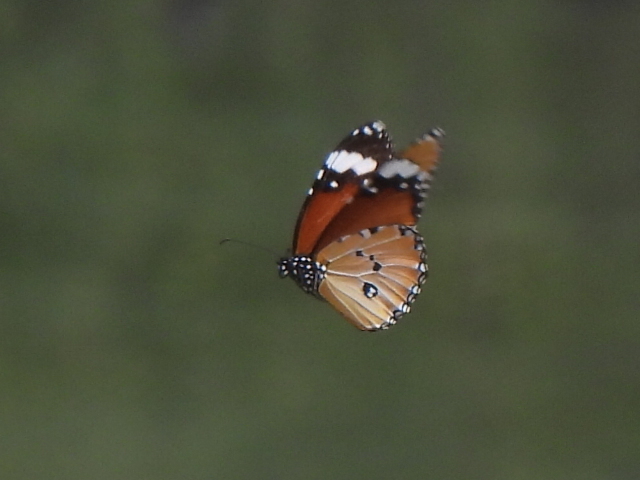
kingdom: Animalia
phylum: Arthropoda
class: Insecta
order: Lepidoptera
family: Nymphalidae
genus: Danaus
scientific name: Danaus chrysippus
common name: Plain tiger
